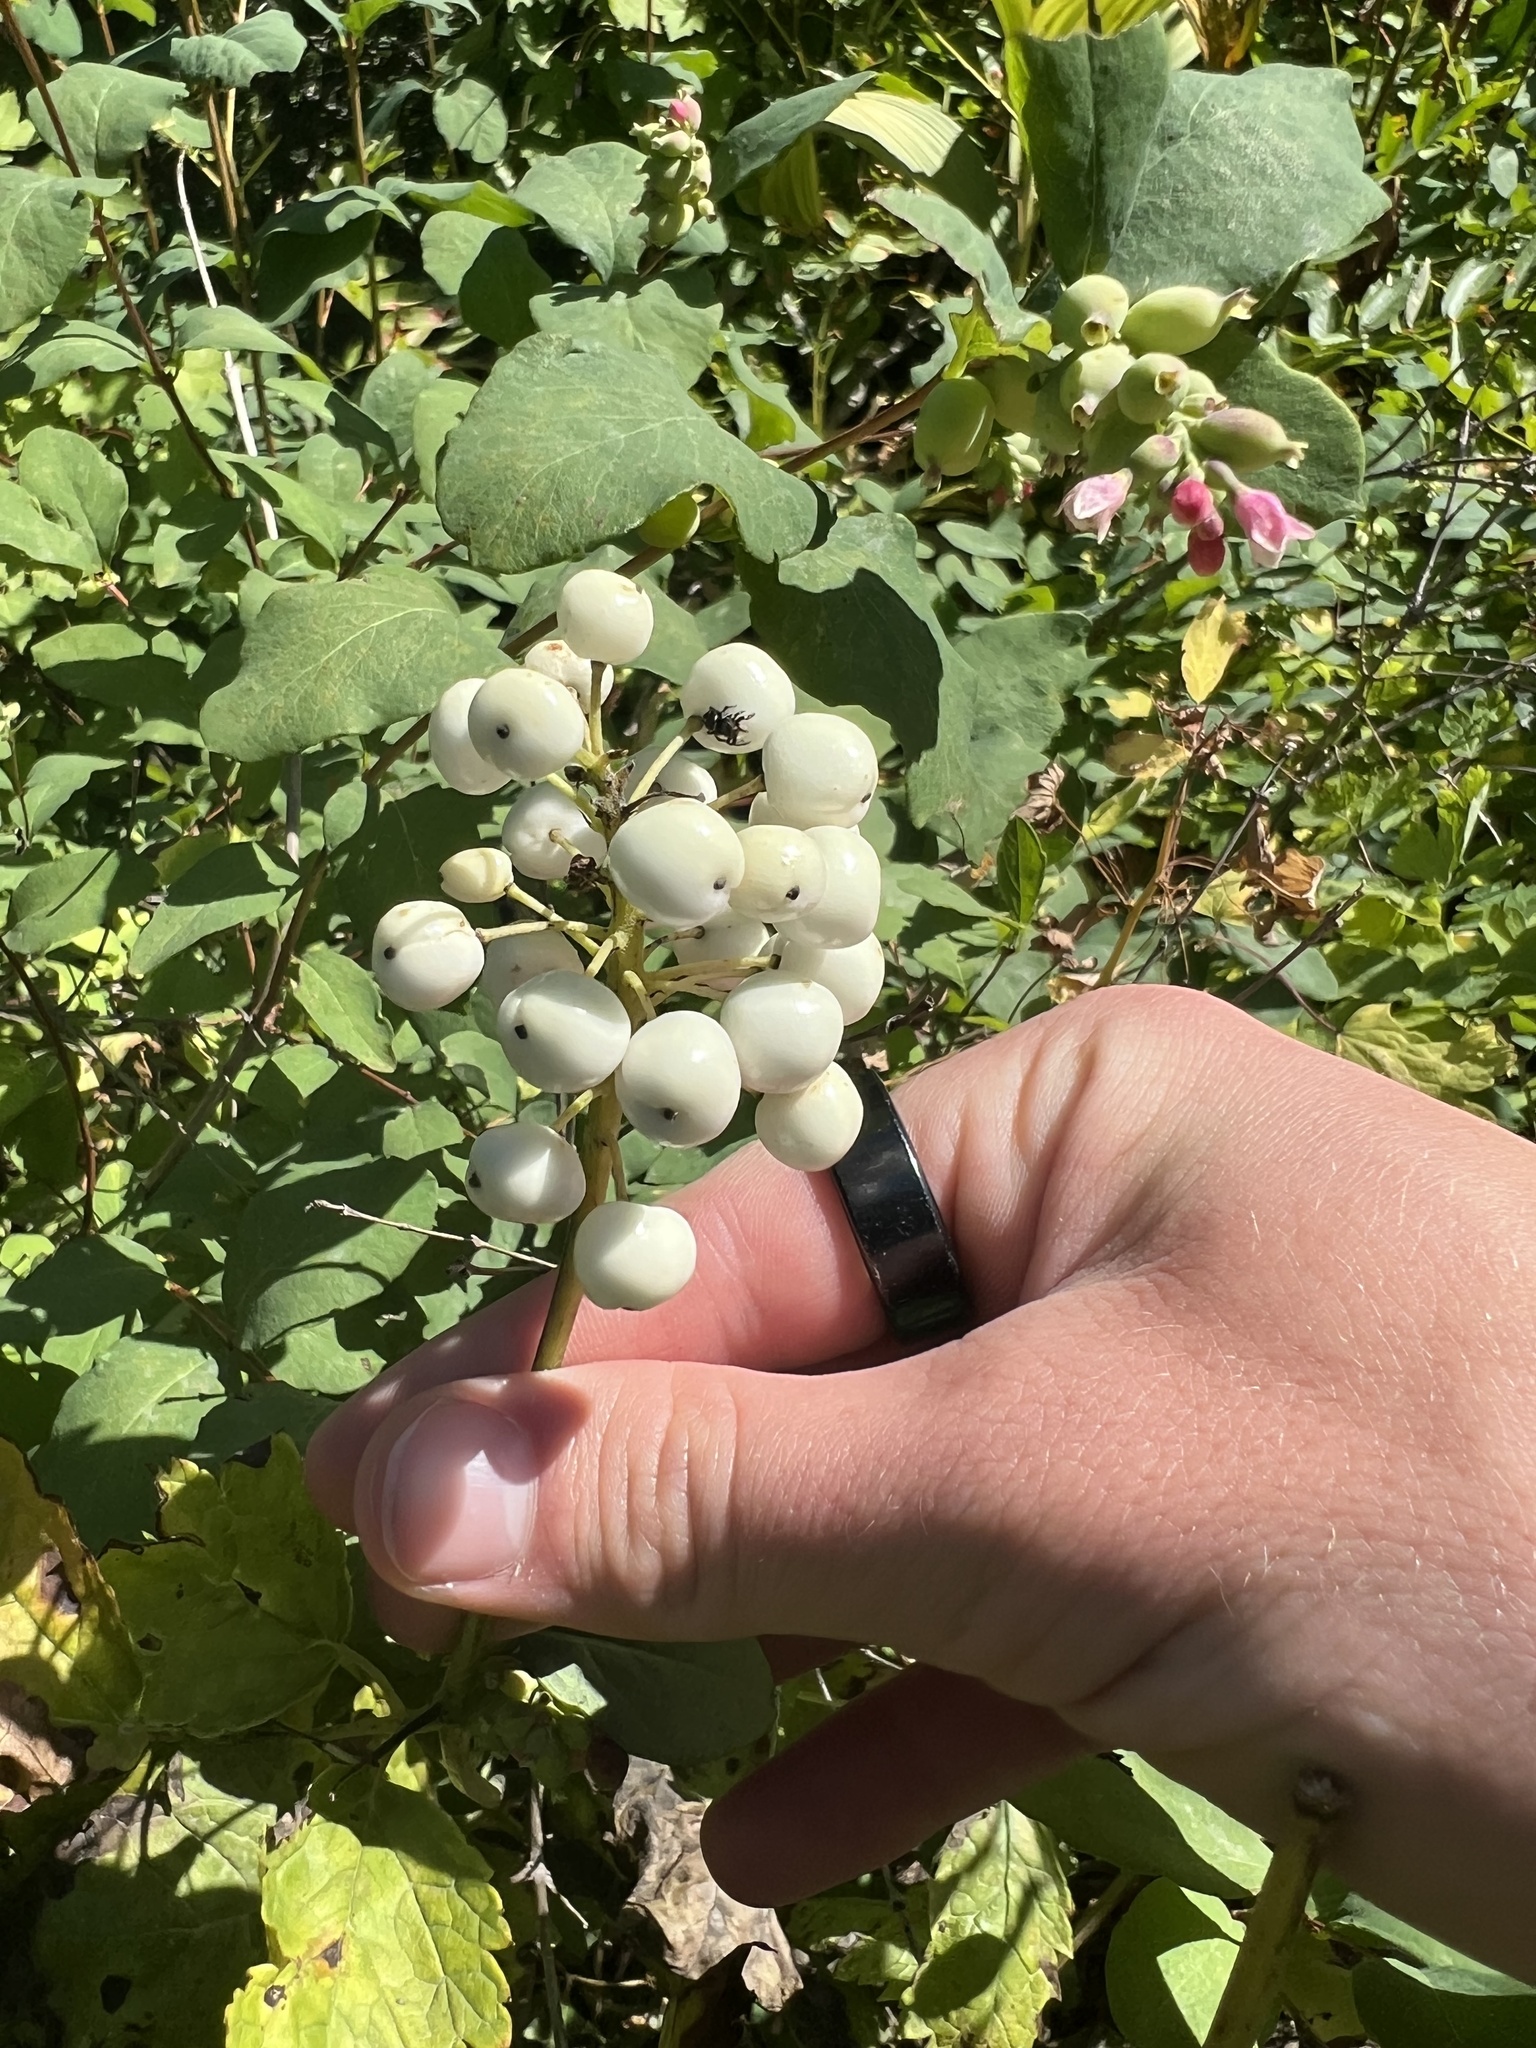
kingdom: Plantae
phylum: Tracheophyta
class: Magnoliopsida
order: Ranunculales
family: Ranunculaceae
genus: Actaea
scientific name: Actaea rubra
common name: Red baneberry
